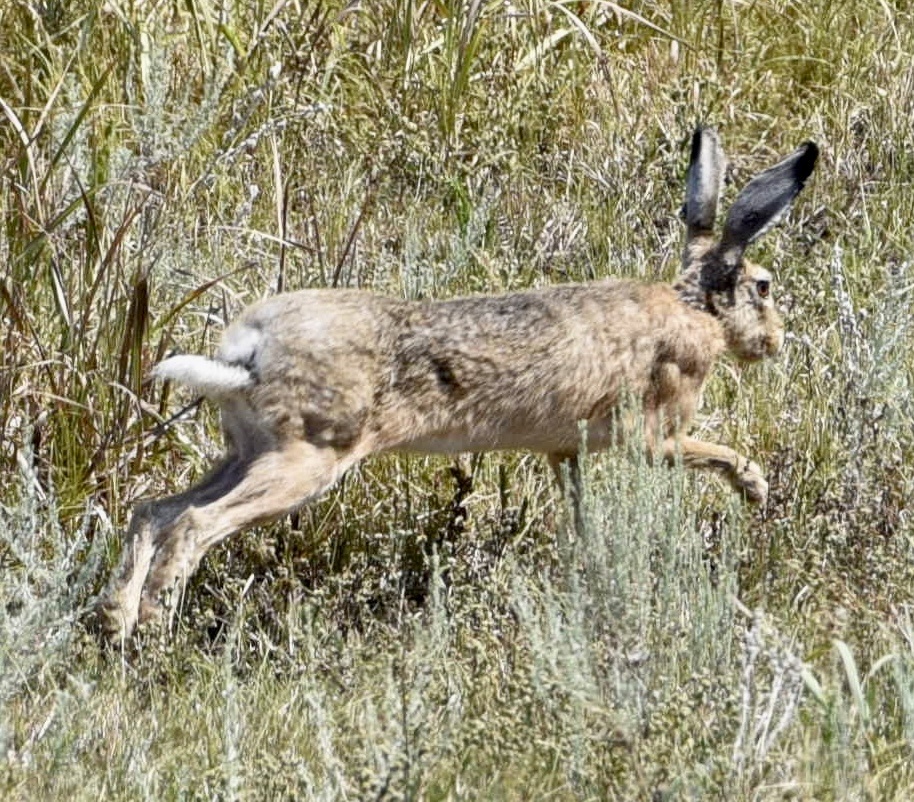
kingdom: Animalia
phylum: Chordata
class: Mammalia
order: Lagomorpha
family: Leporidae
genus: Lepus
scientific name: Lepus europaeus
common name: European hare
